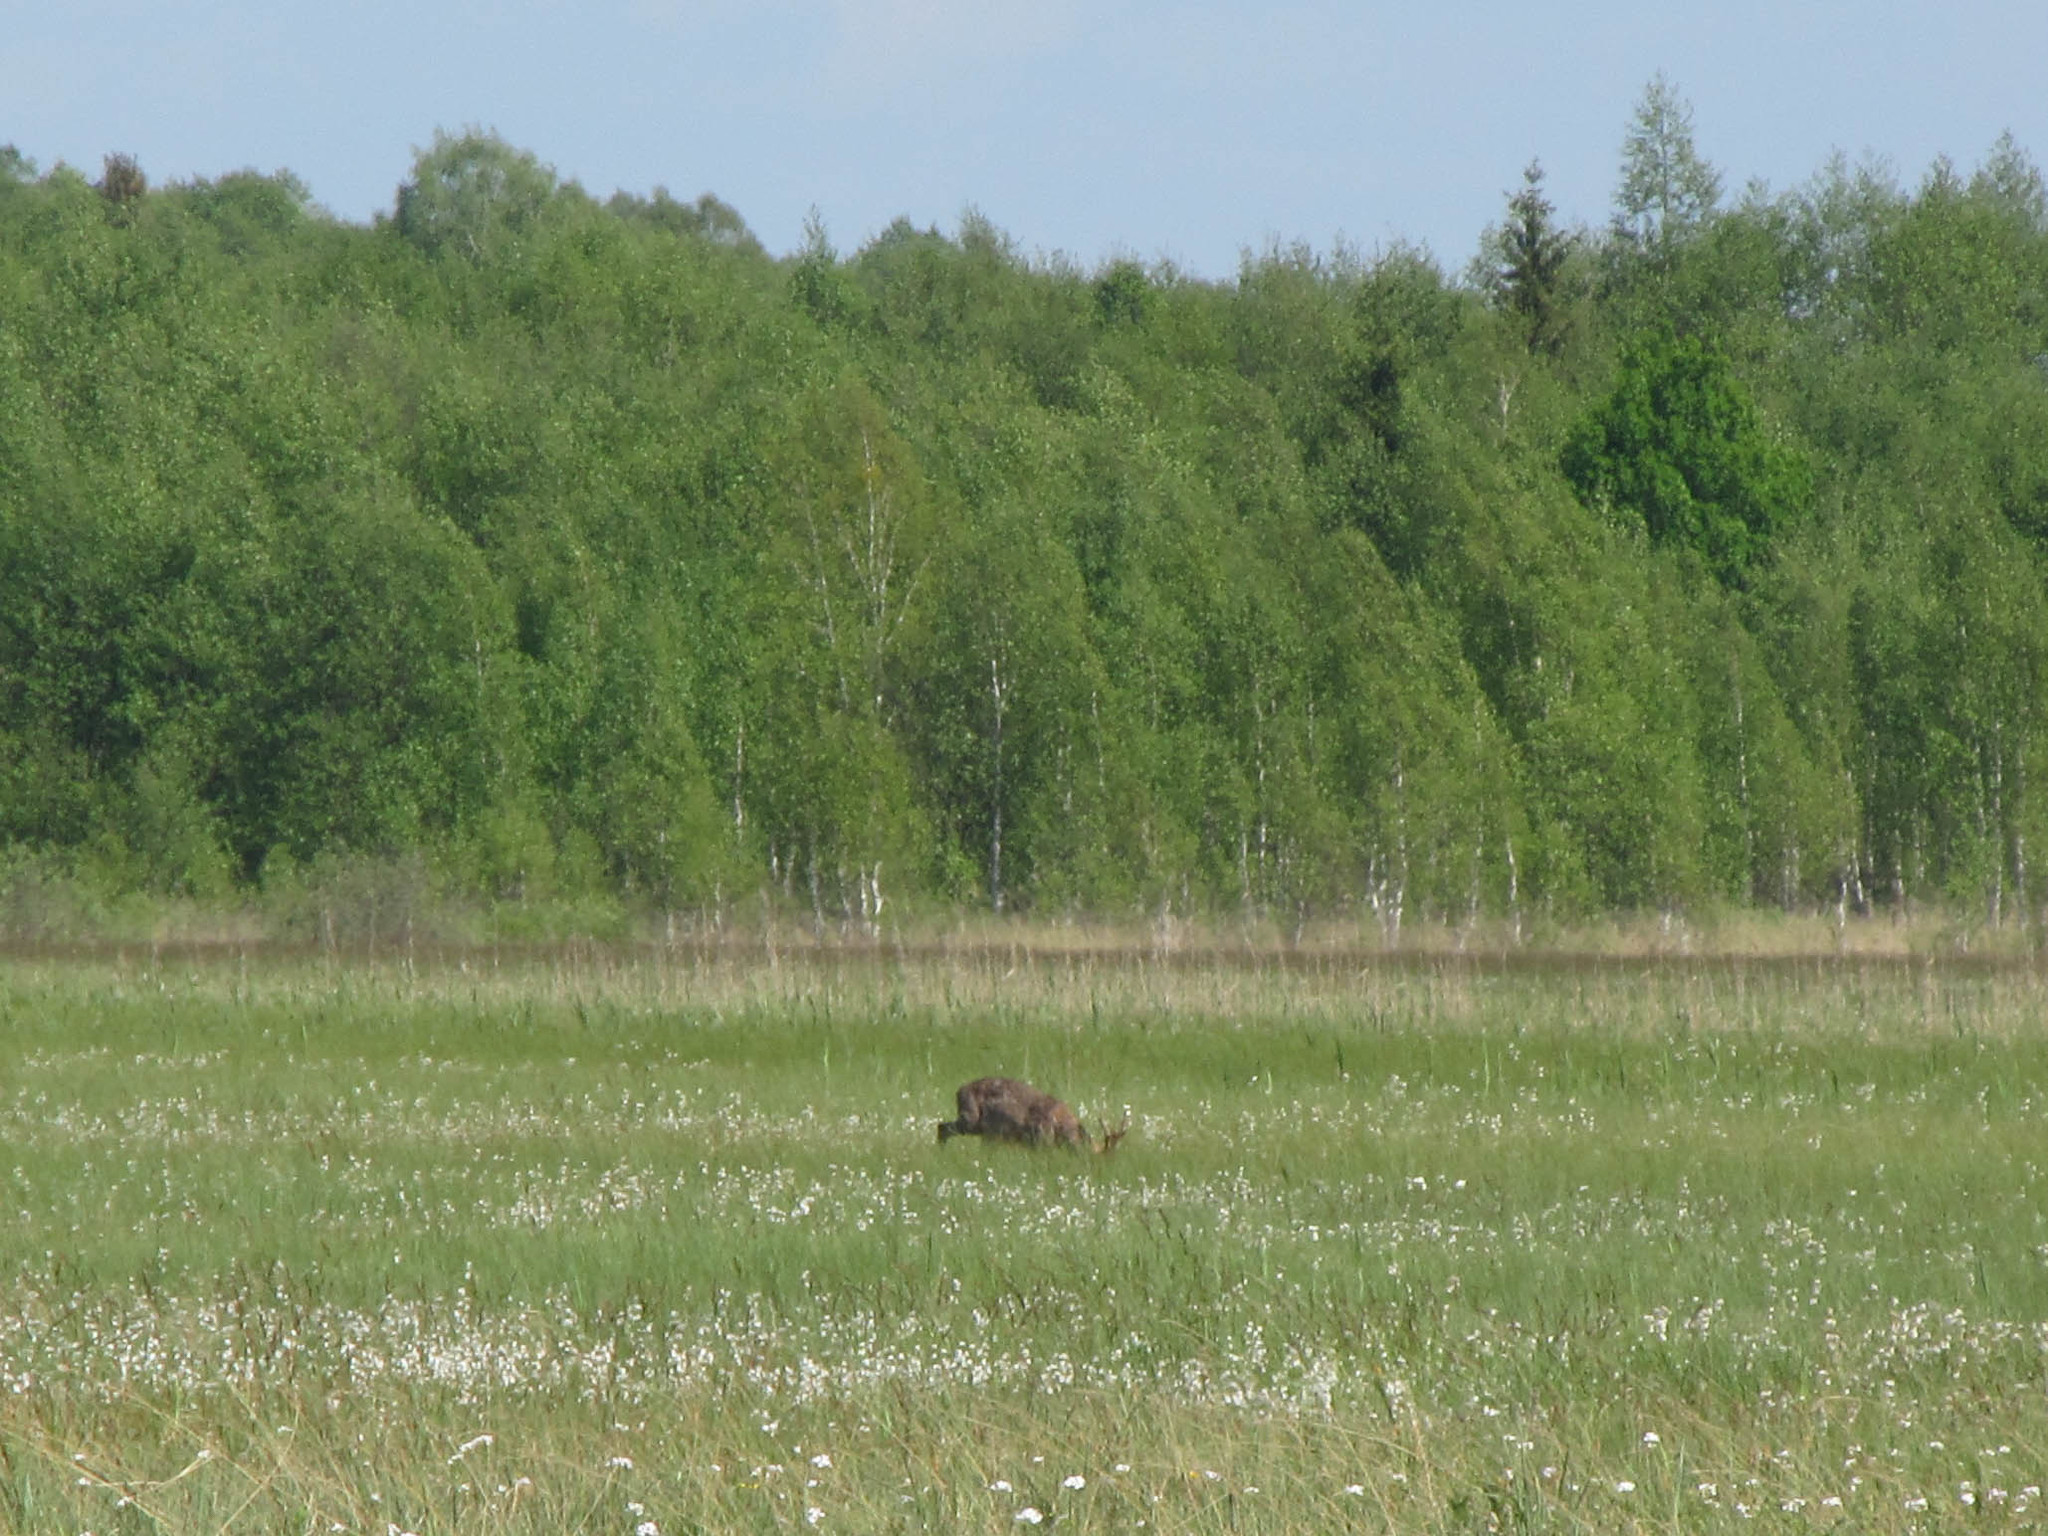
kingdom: Animalia
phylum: Chordata
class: Mammalia
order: Artiodactyla
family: Cervidae
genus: Capreolus
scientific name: Capreolus capreolus
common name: Western roe deer
